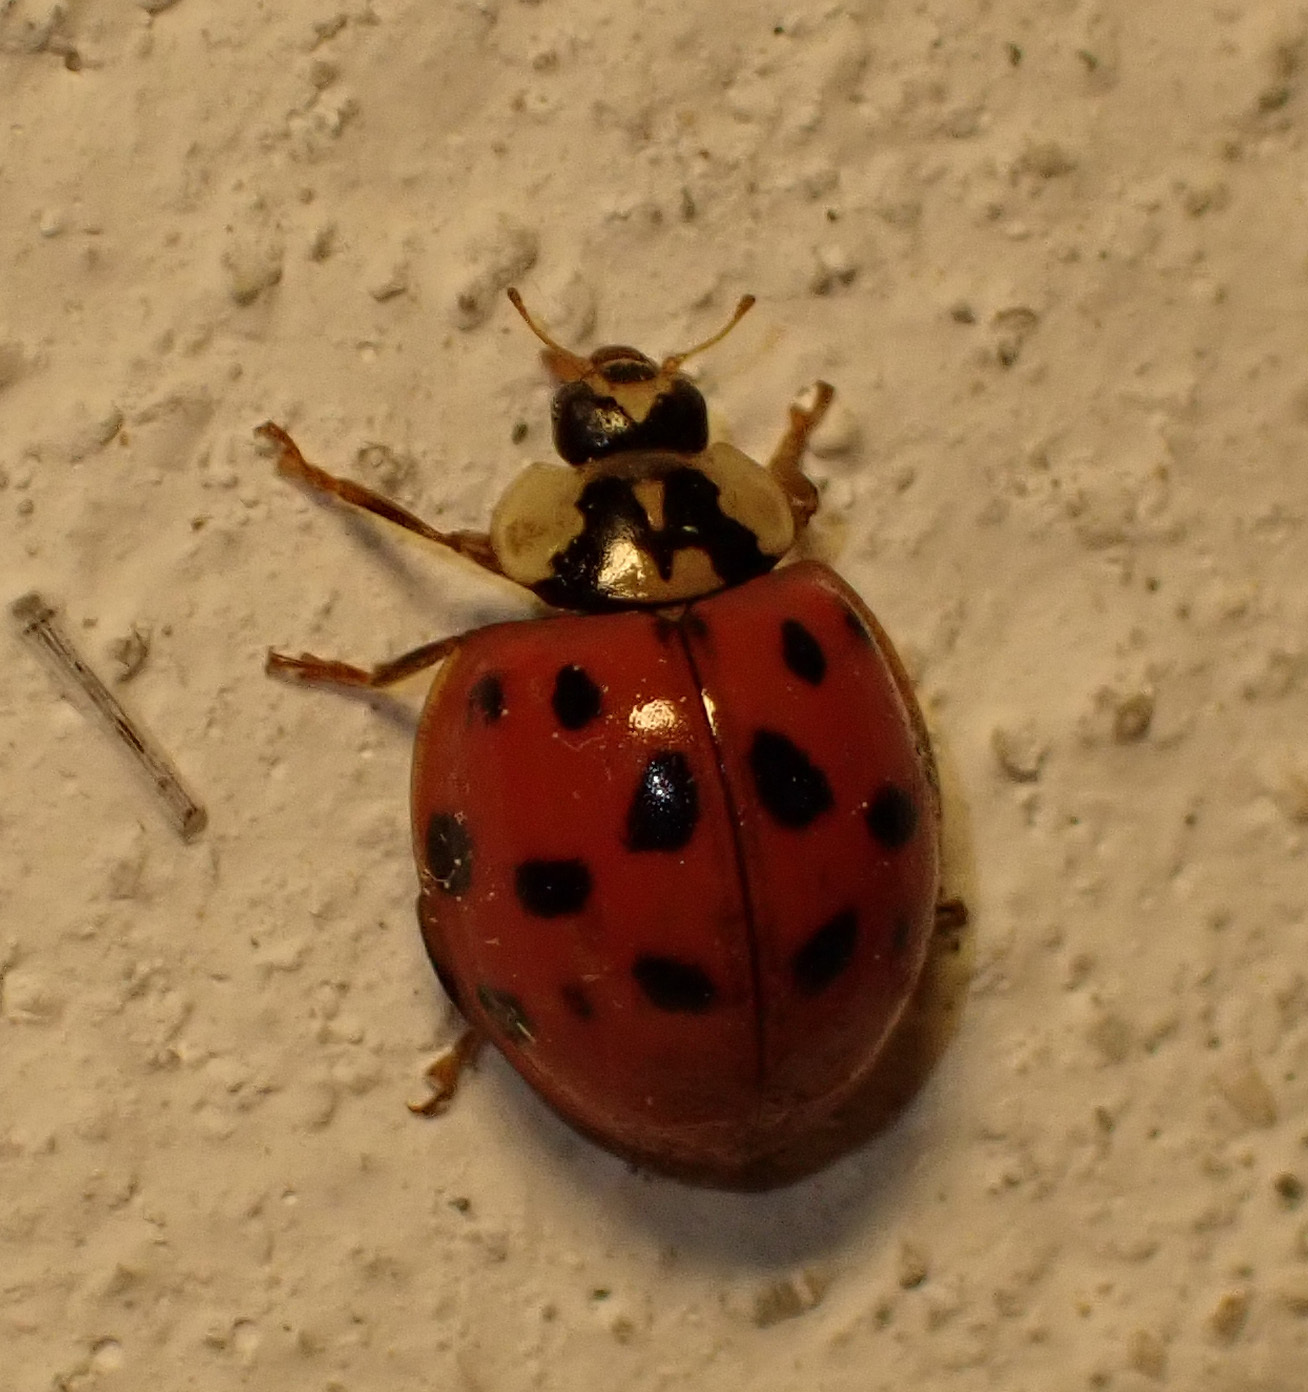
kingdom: Animalia
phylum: Arthropoda
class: Insecta
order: Coleoptera
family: Coccinellidae
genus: Harmonia
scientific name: Harmonia axyridis
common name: Harlequin ladybird
